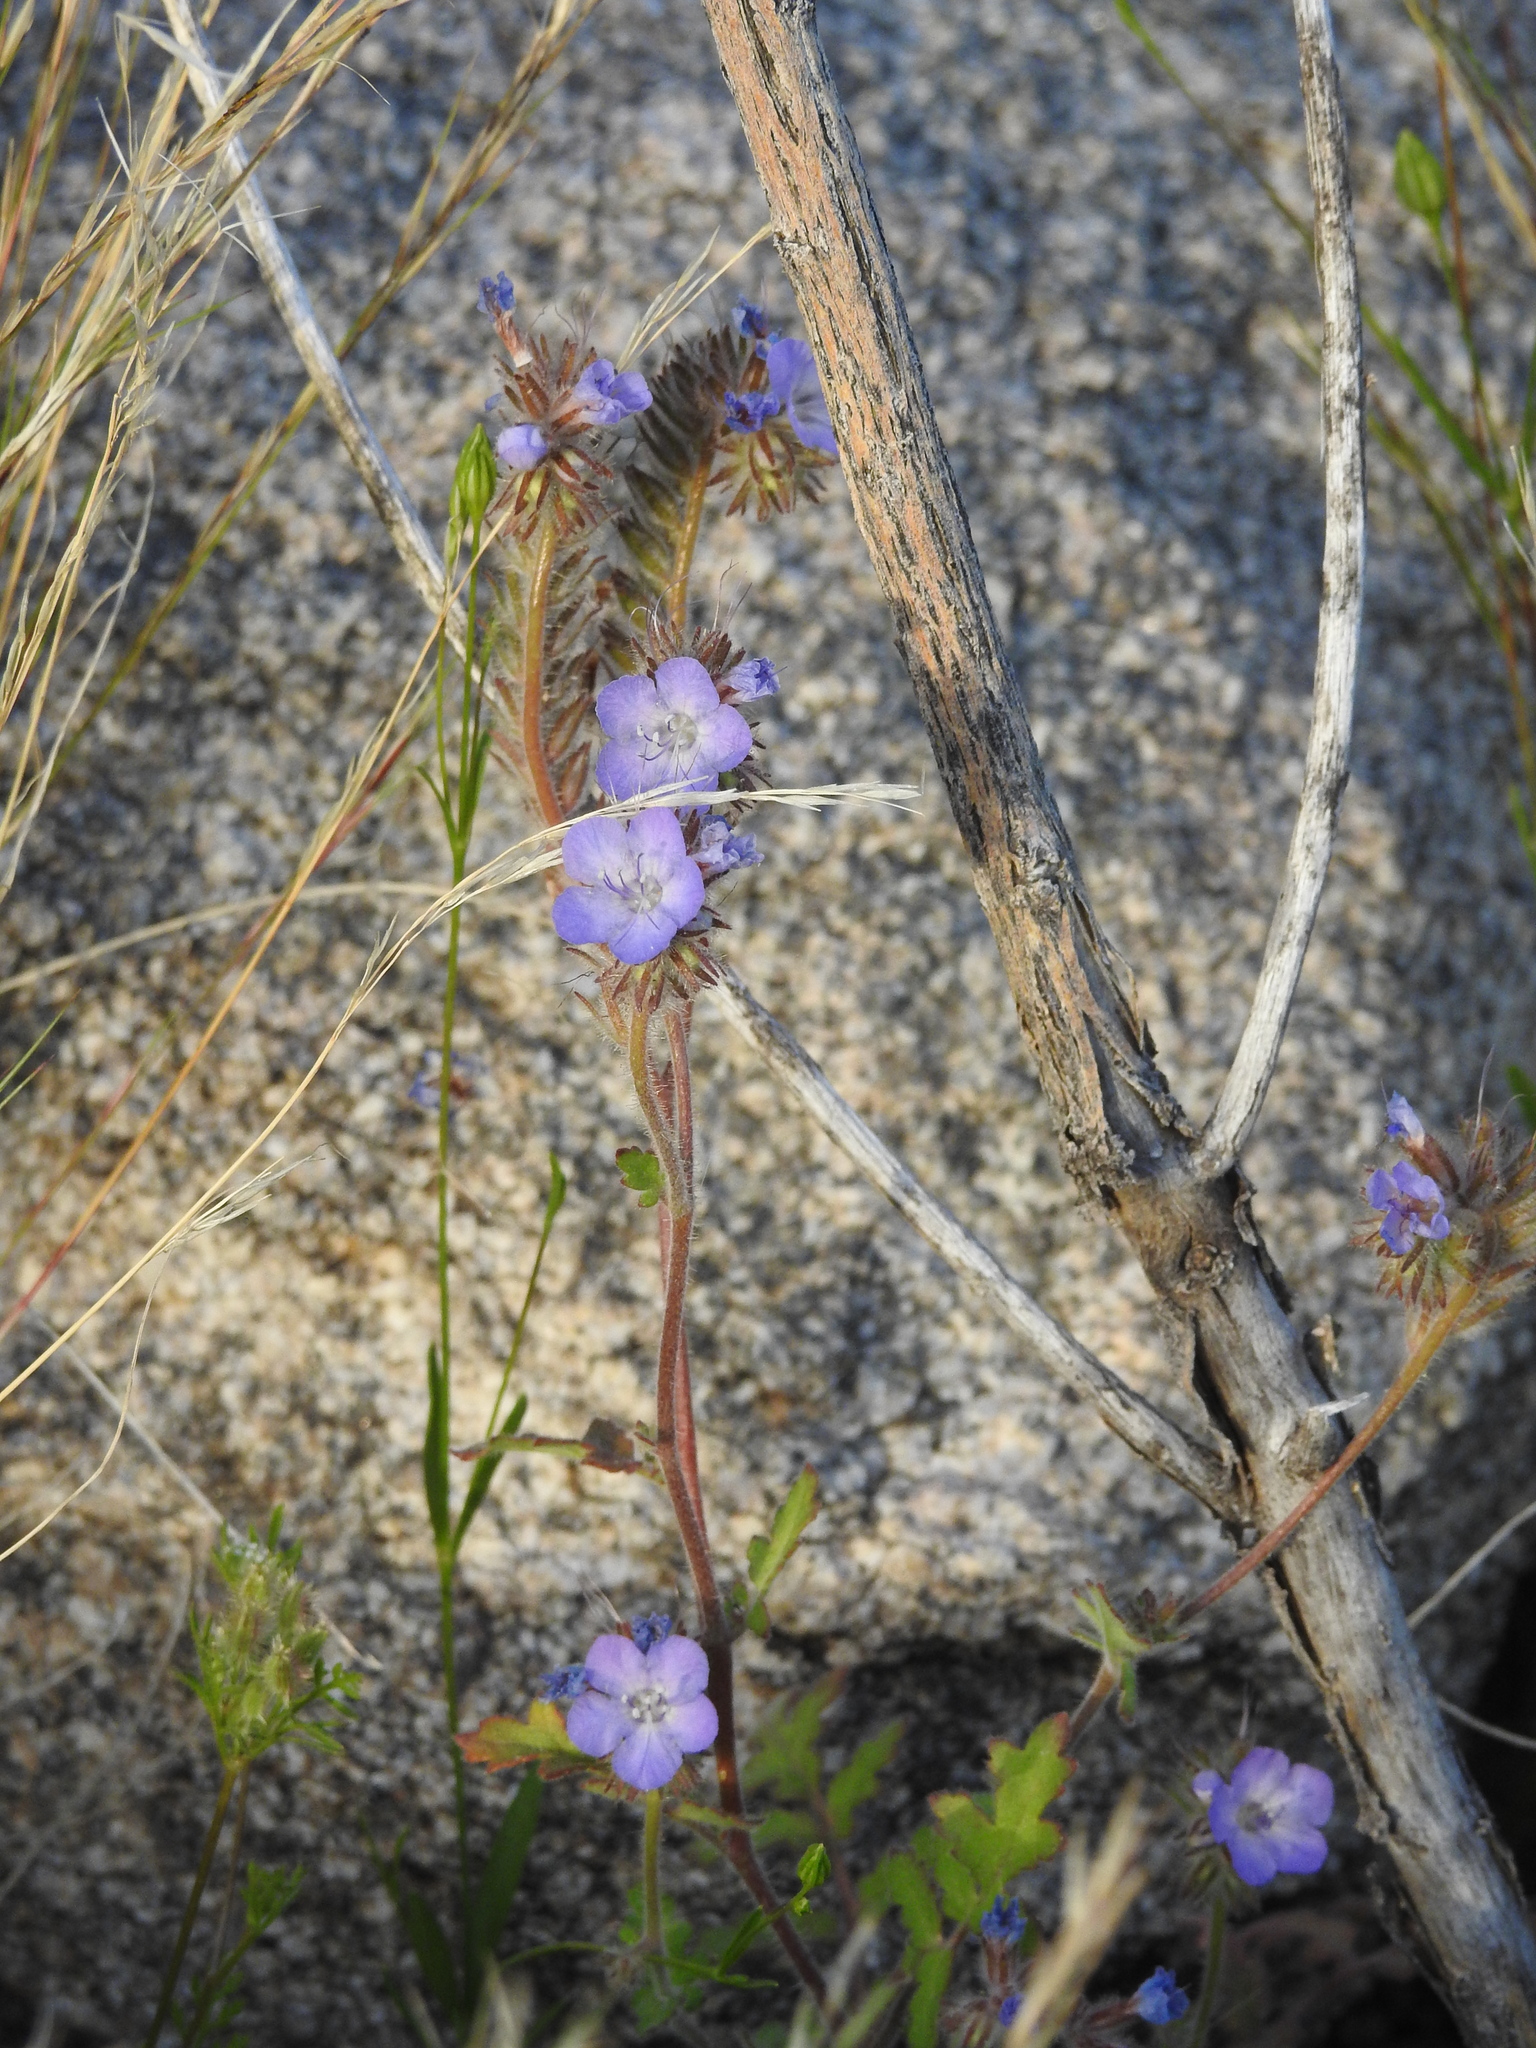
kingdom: Plantae
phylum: Tracheophyta
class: Magnoliopsida
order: Boraginales
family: Hydrophyllaceae
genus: Phacelia
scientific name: Phacelia distans
